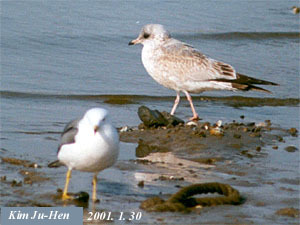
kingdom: Animalia
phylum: Chordata
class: Aves
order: Charadriiformes
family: Laridae
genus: Larus
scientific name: Larus canus
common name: Mew gull
